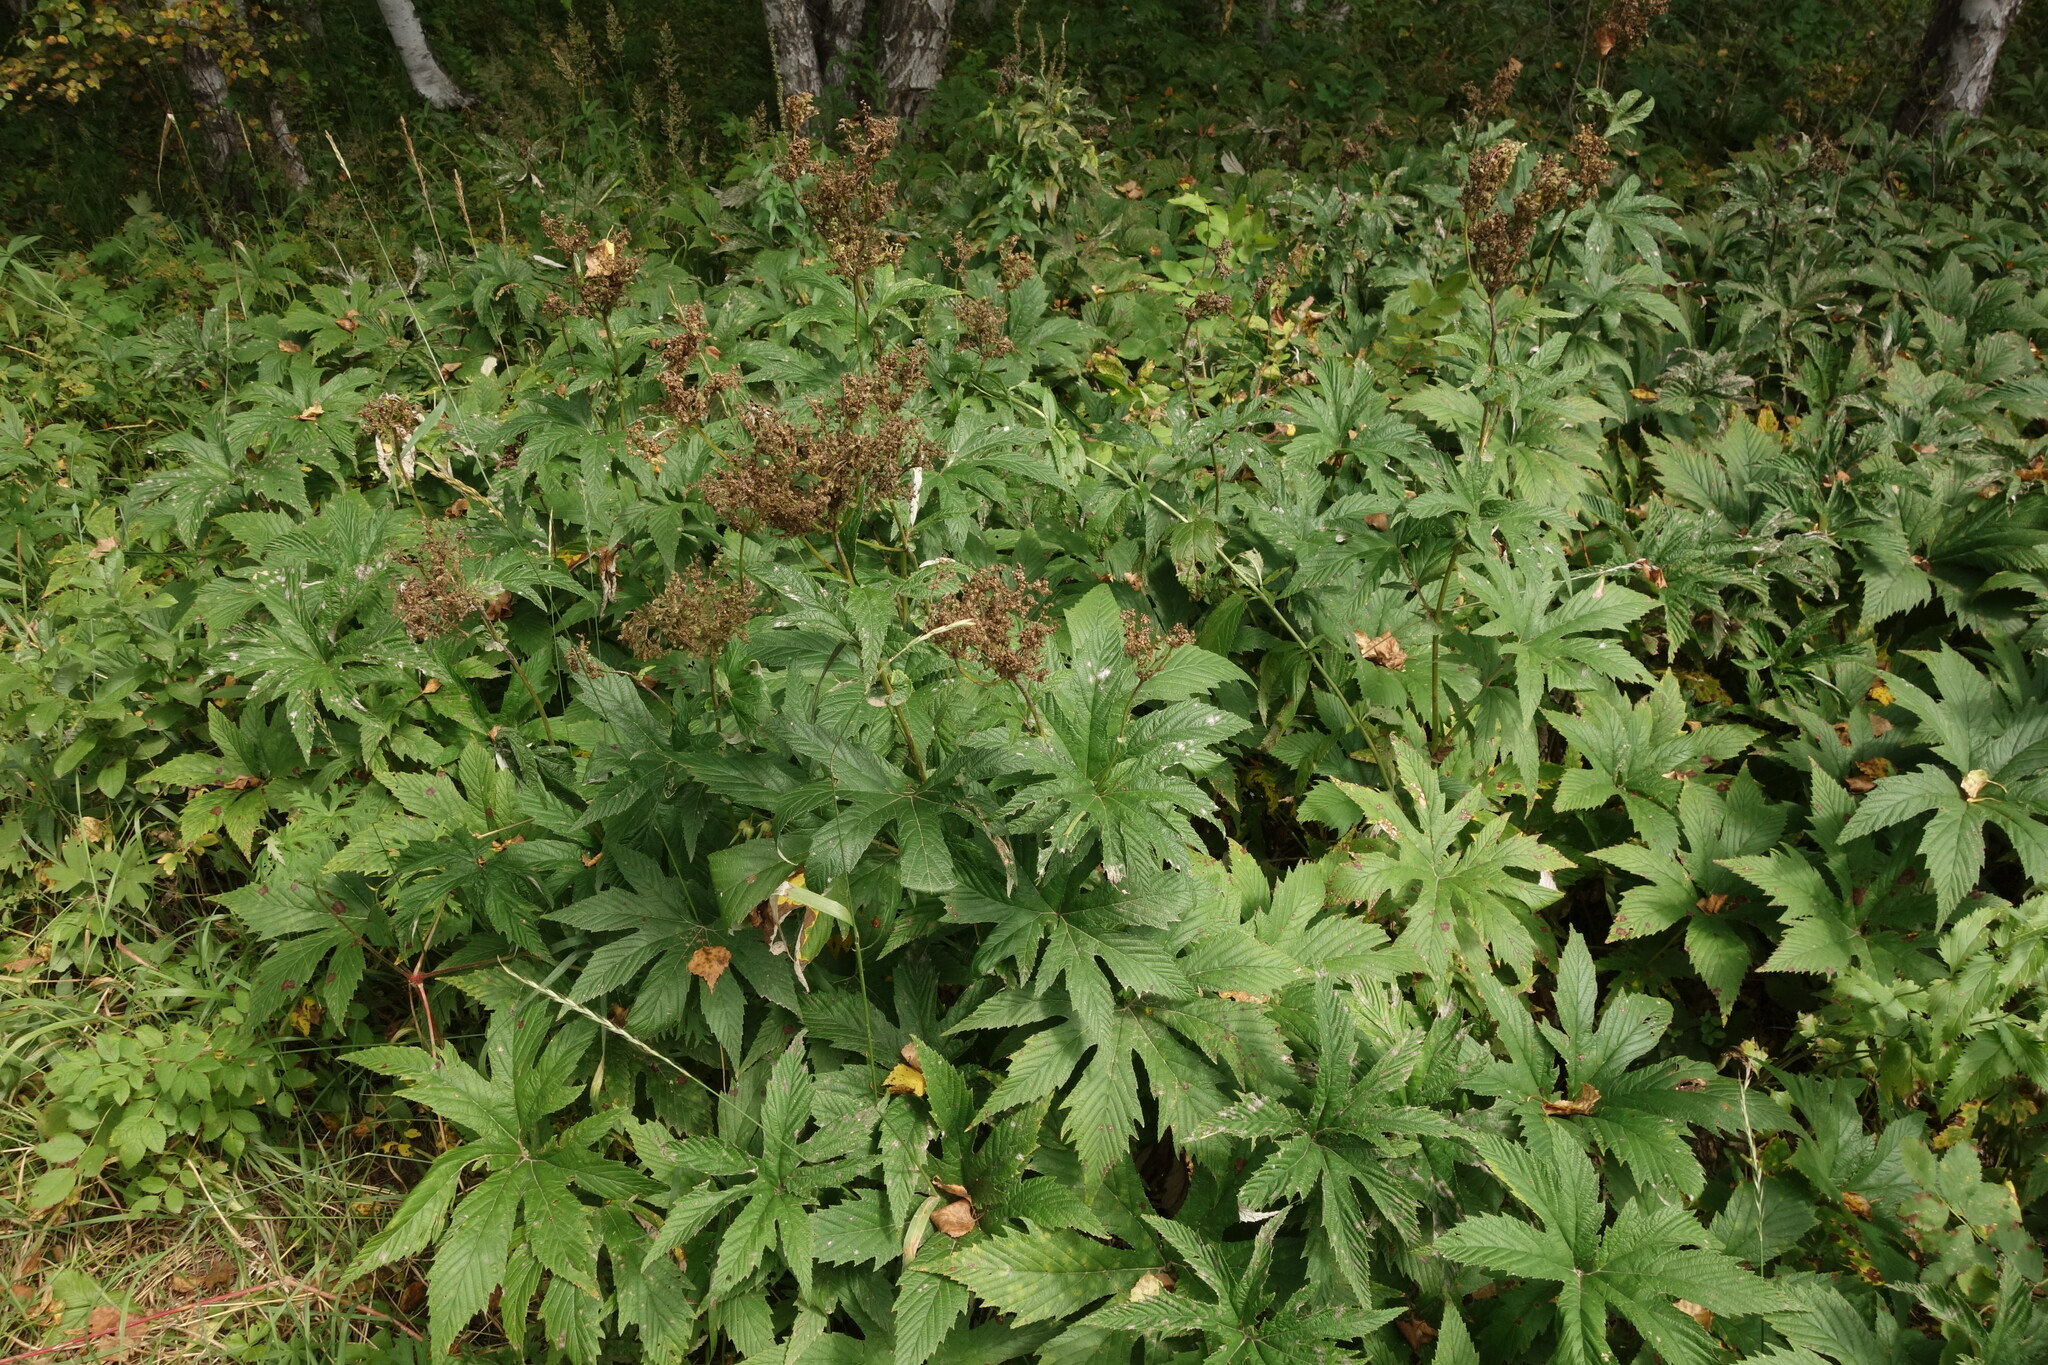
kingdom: Plantae
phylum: Tracheophyta
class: Magnoliopsida
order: Rosales
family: Rosaceae
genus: Filipendula
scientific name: Filipendula digitata
